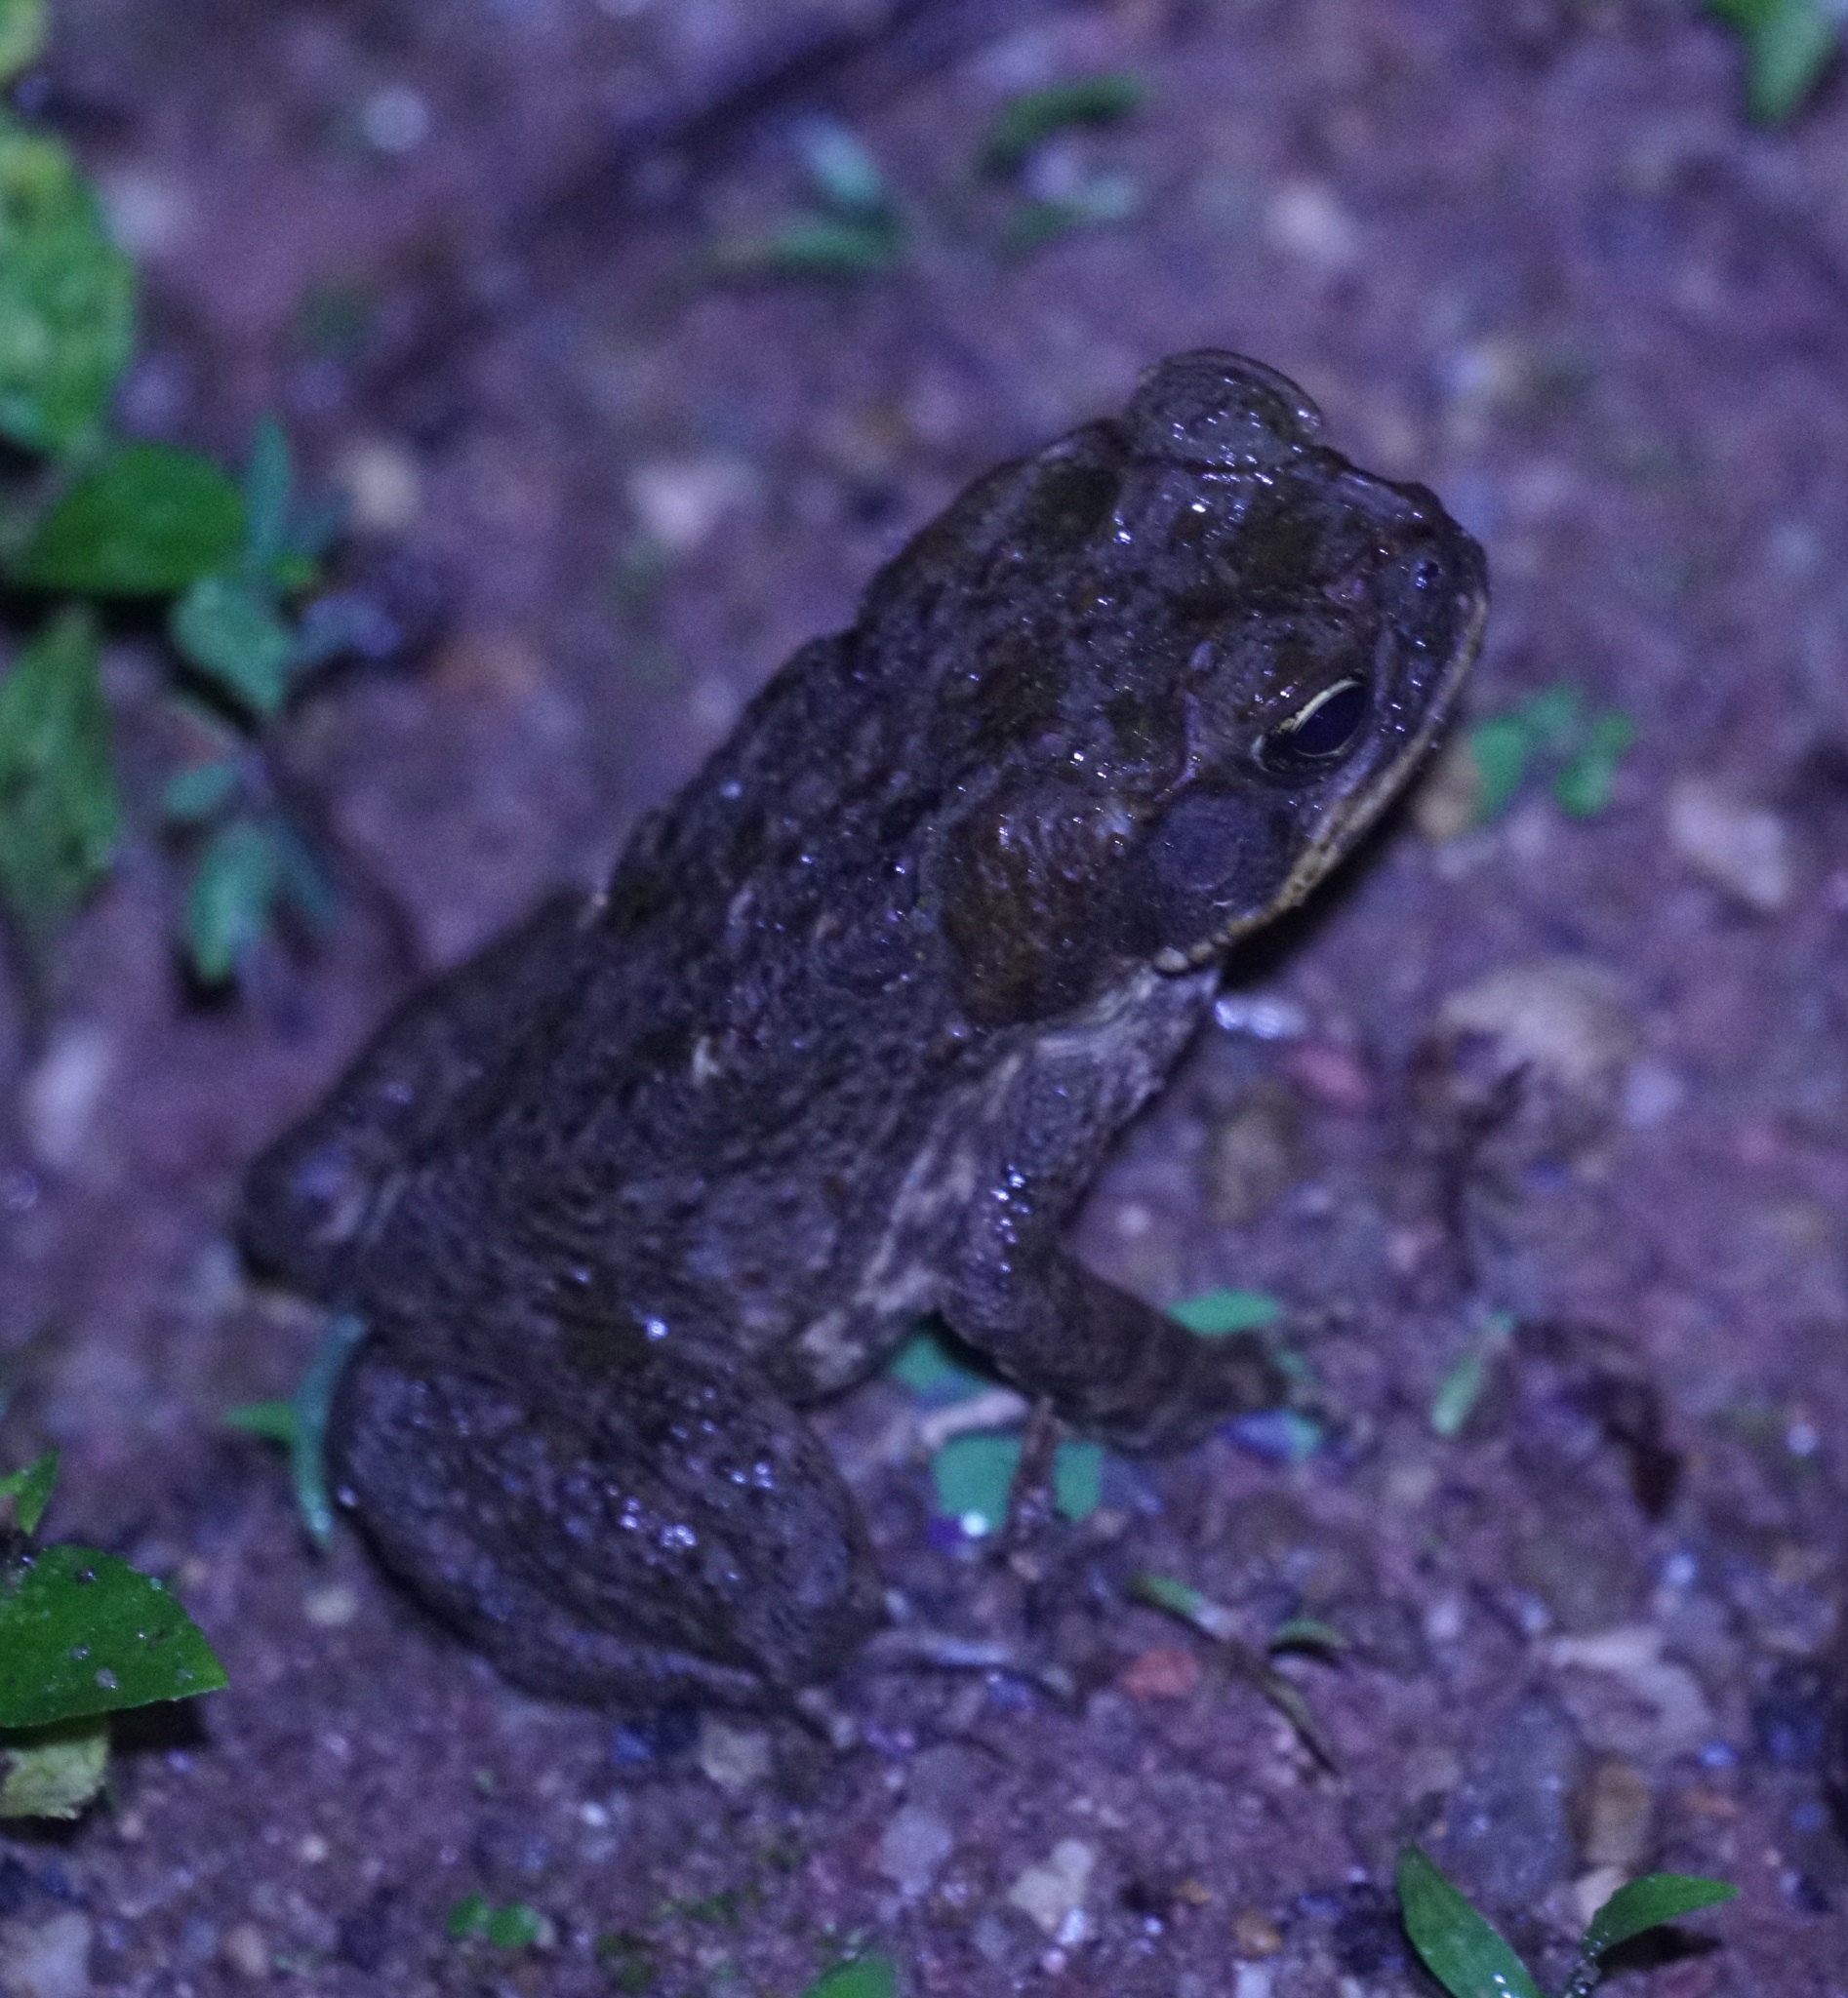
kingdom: Animalia
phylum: Chordata
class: Amphibia
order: Anura
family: Bufonidae
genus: Rhinella
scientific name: Rhinella marina
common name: Cane toad
